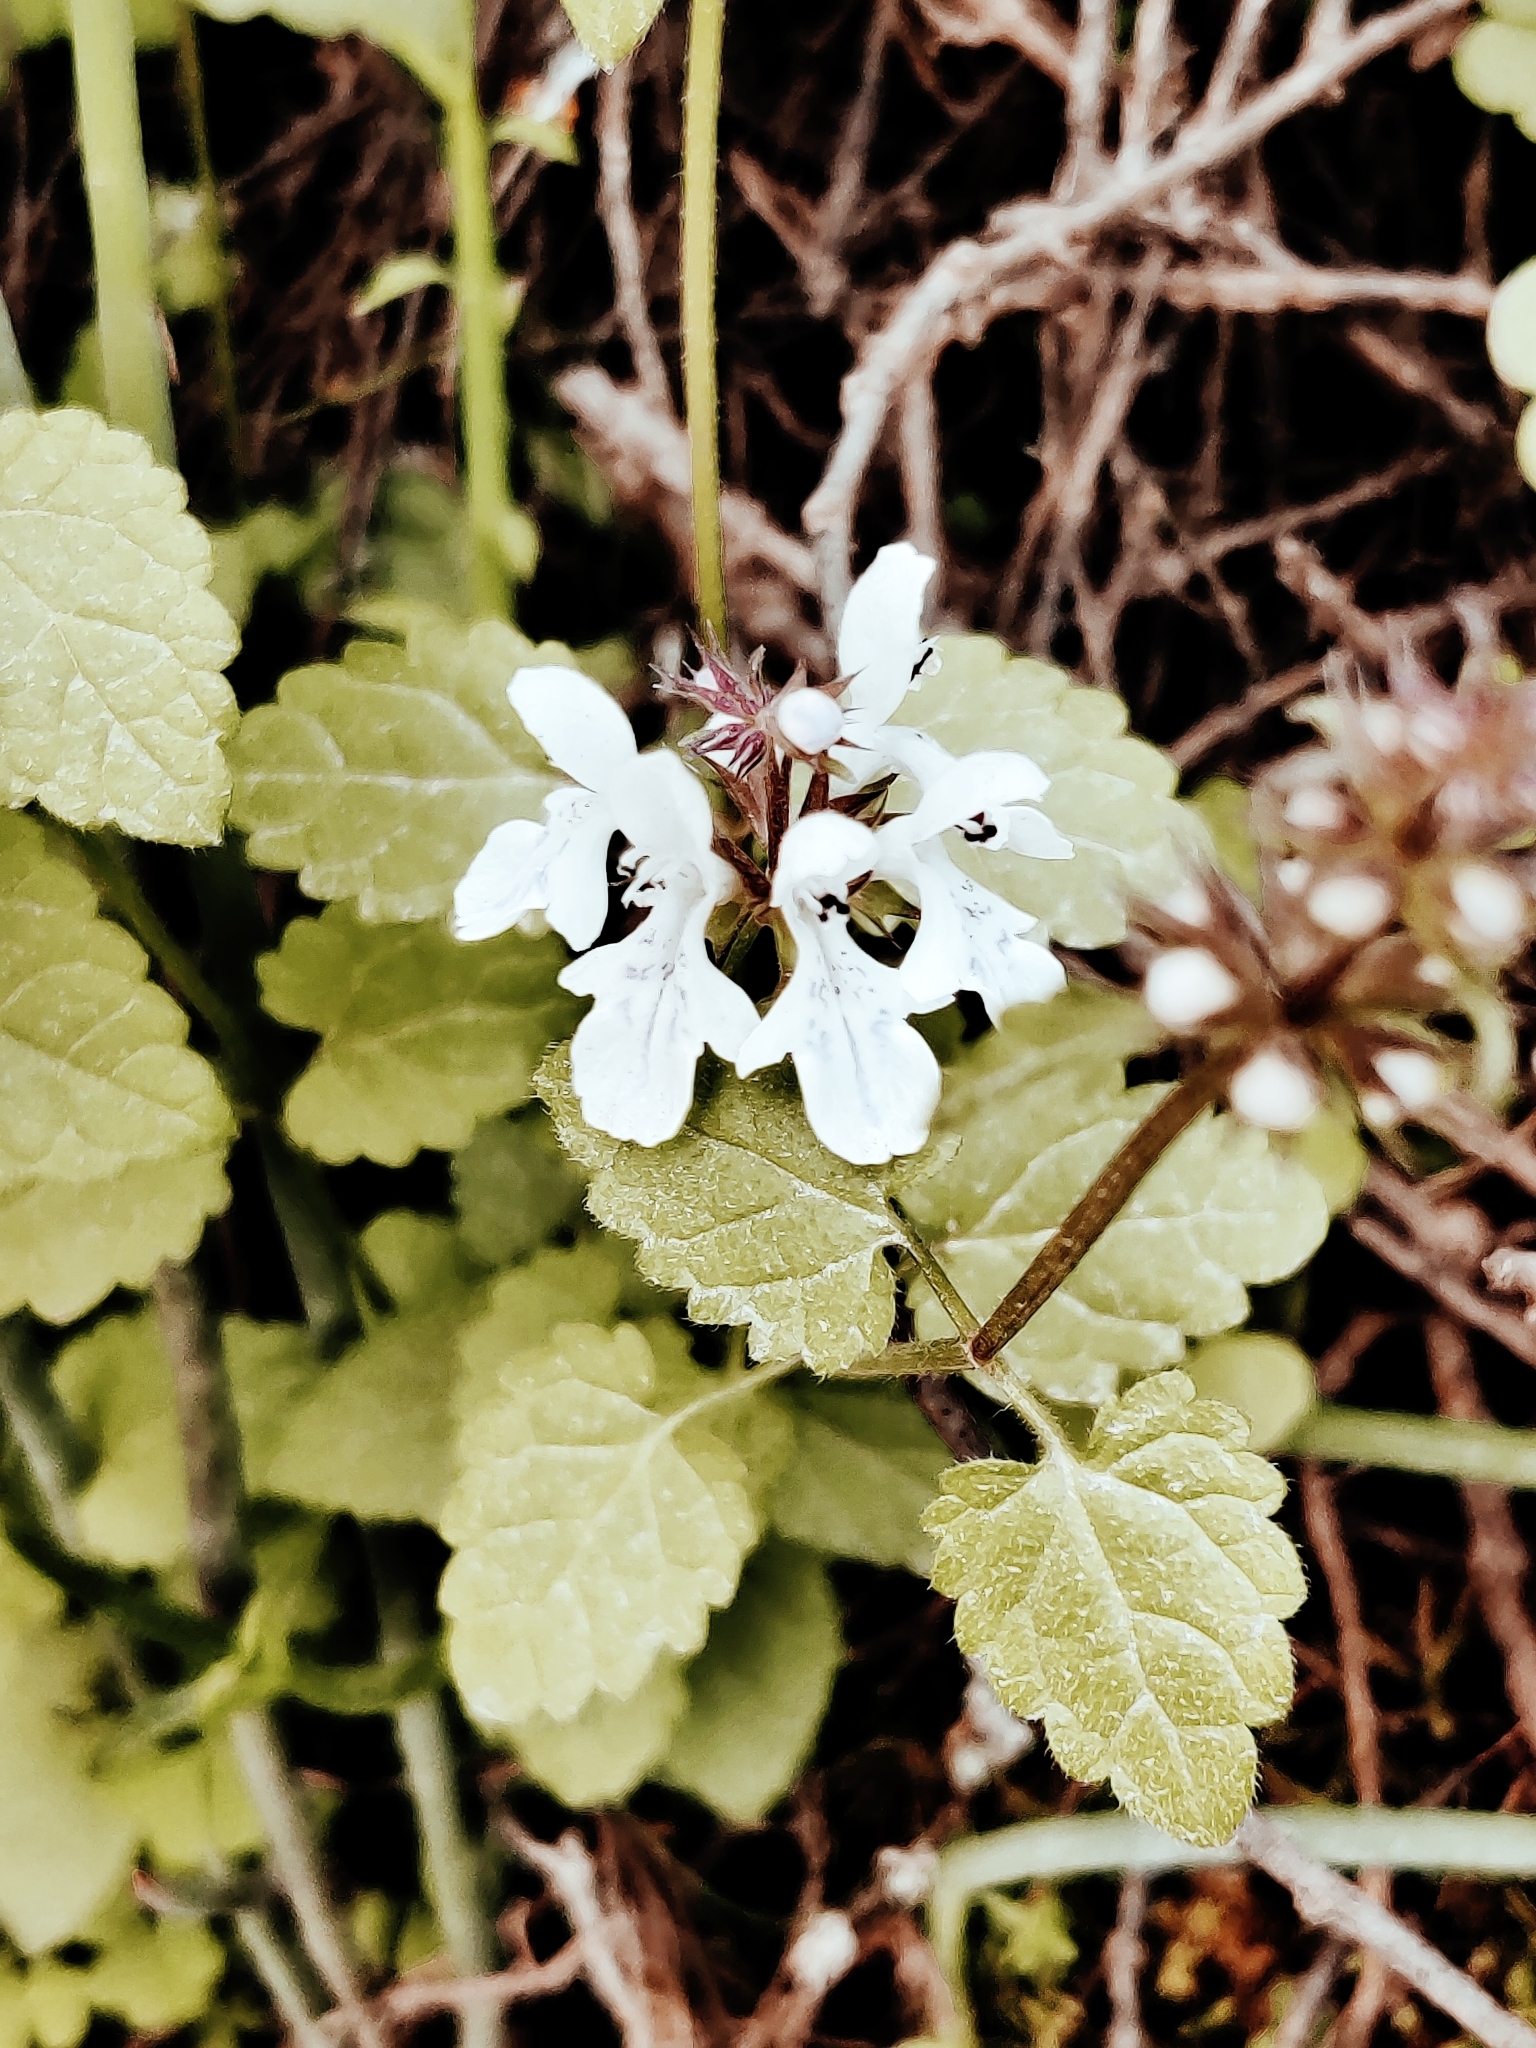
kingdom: Plantae
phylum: Tracheophyta
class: Magnoliopsida
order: Lamiales
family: Lamiaceae
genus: Stachys
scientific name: Stachys aethiopica
